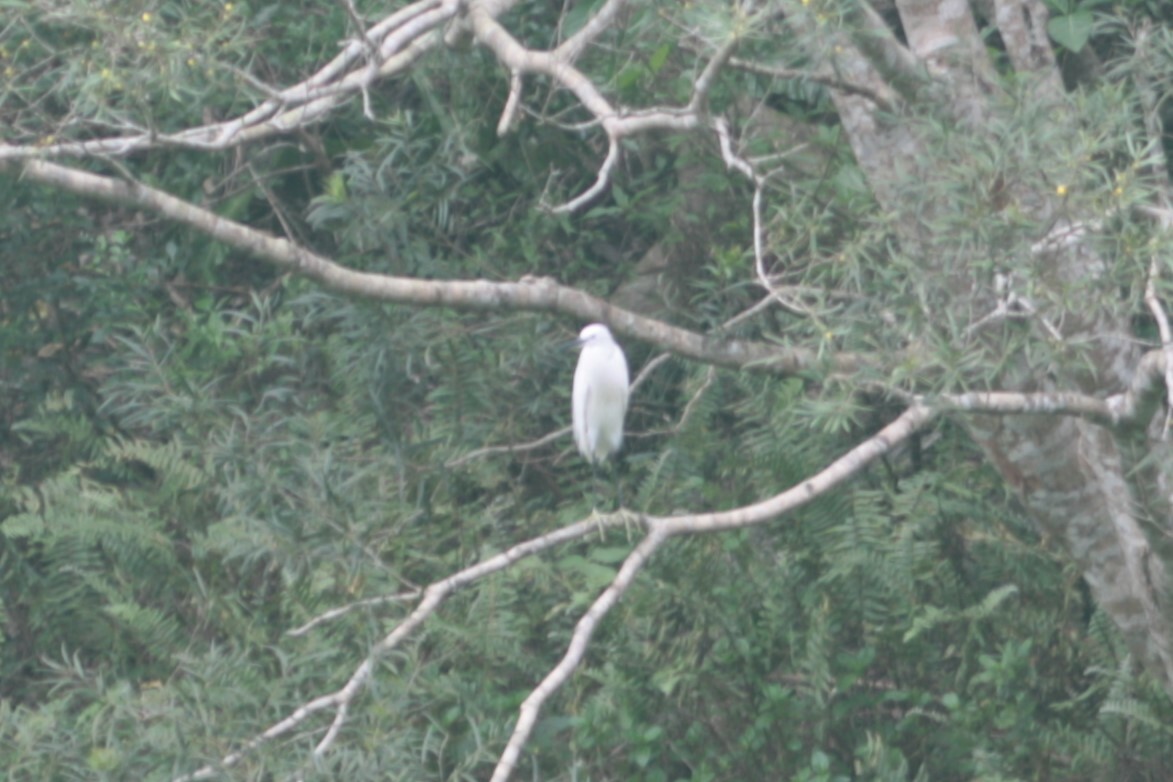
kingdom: Animalia
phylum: Chordata
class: Aves
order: Pelecaniformes
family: Ardeidae
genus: Egretta
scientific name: Egretta garzetta
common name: Little egret
